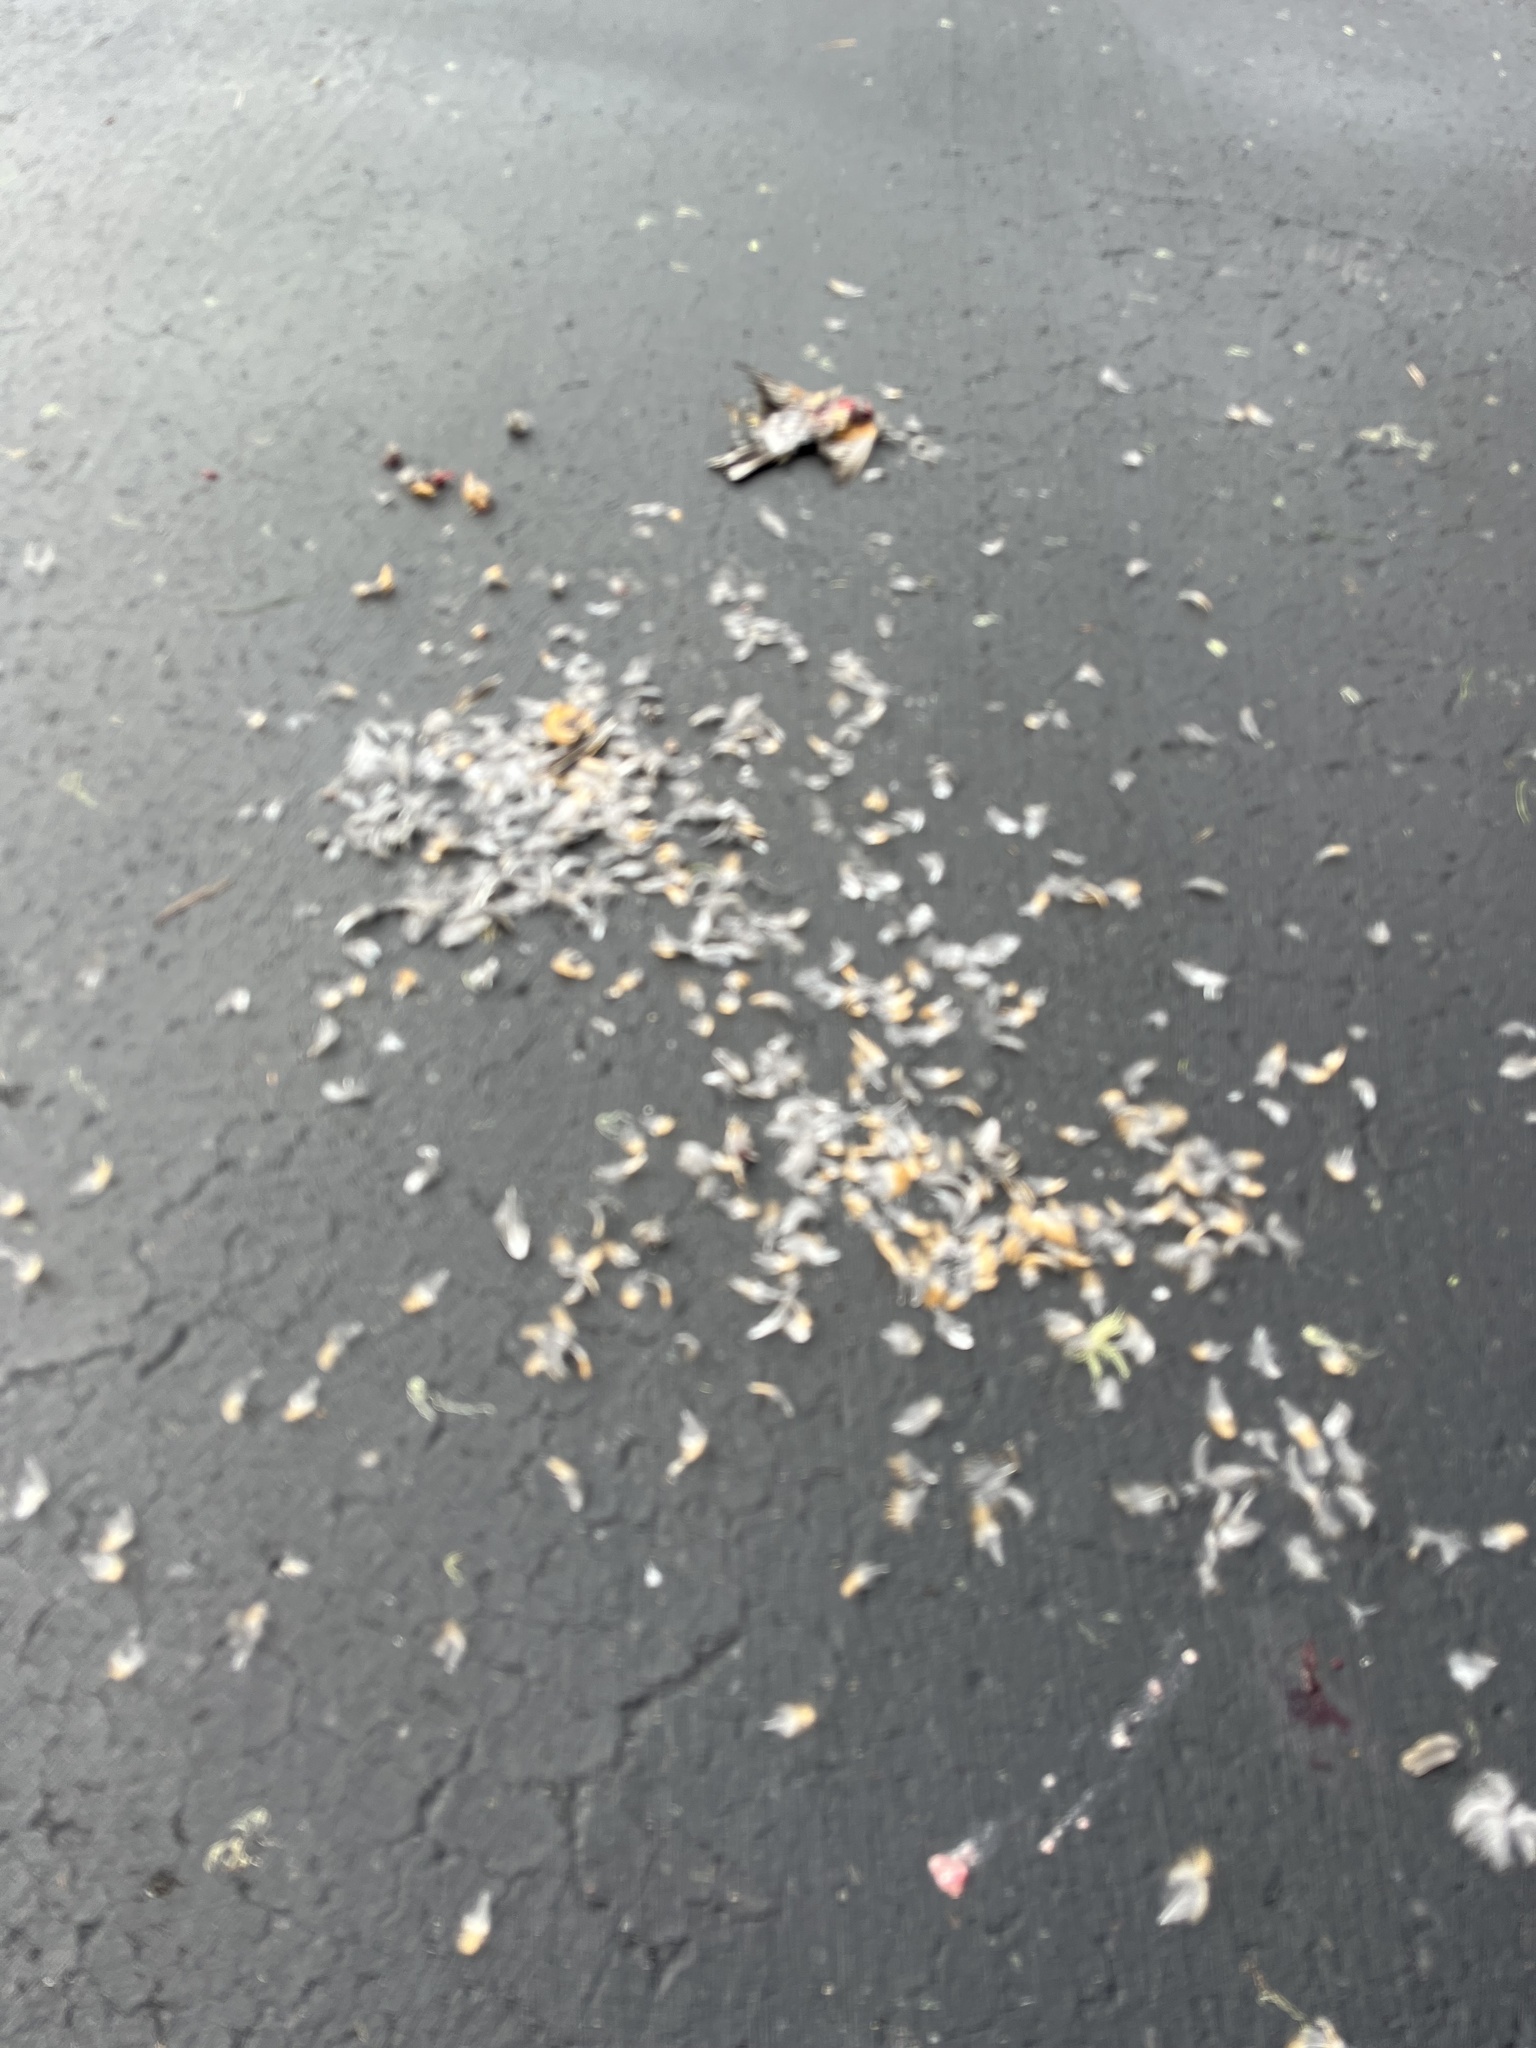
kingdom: Animalia
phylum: Chordata
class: Aves
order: Passeriformes
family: Turdidae
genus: Turdus
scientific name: Turdus migratorius
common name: American robin
